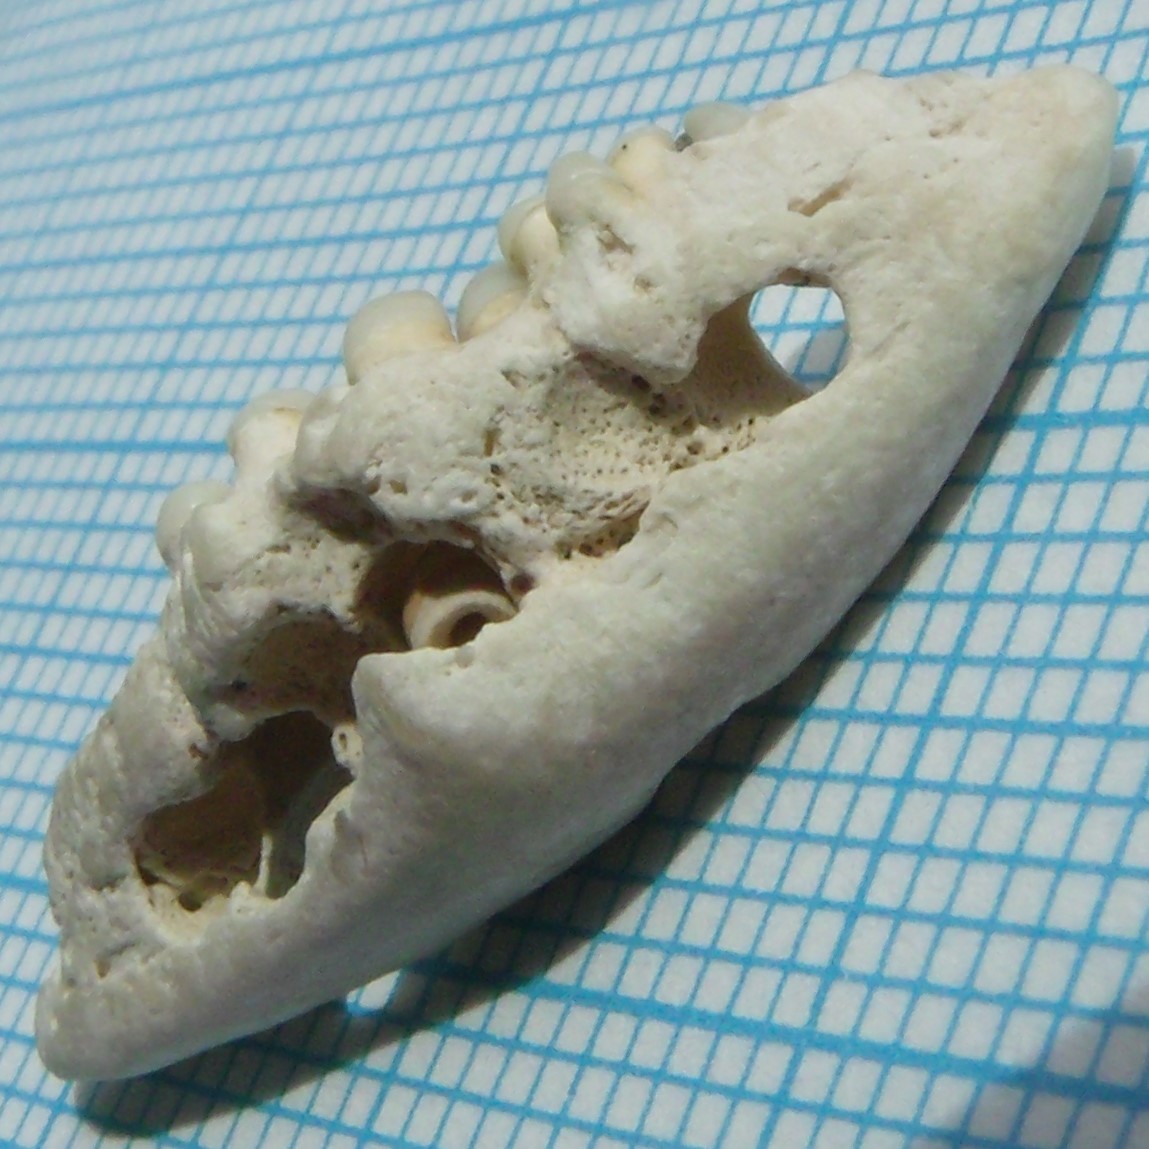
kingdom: Animalia
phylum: Chordata
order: Perciformes
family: Sparidae
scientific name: Sparidae
